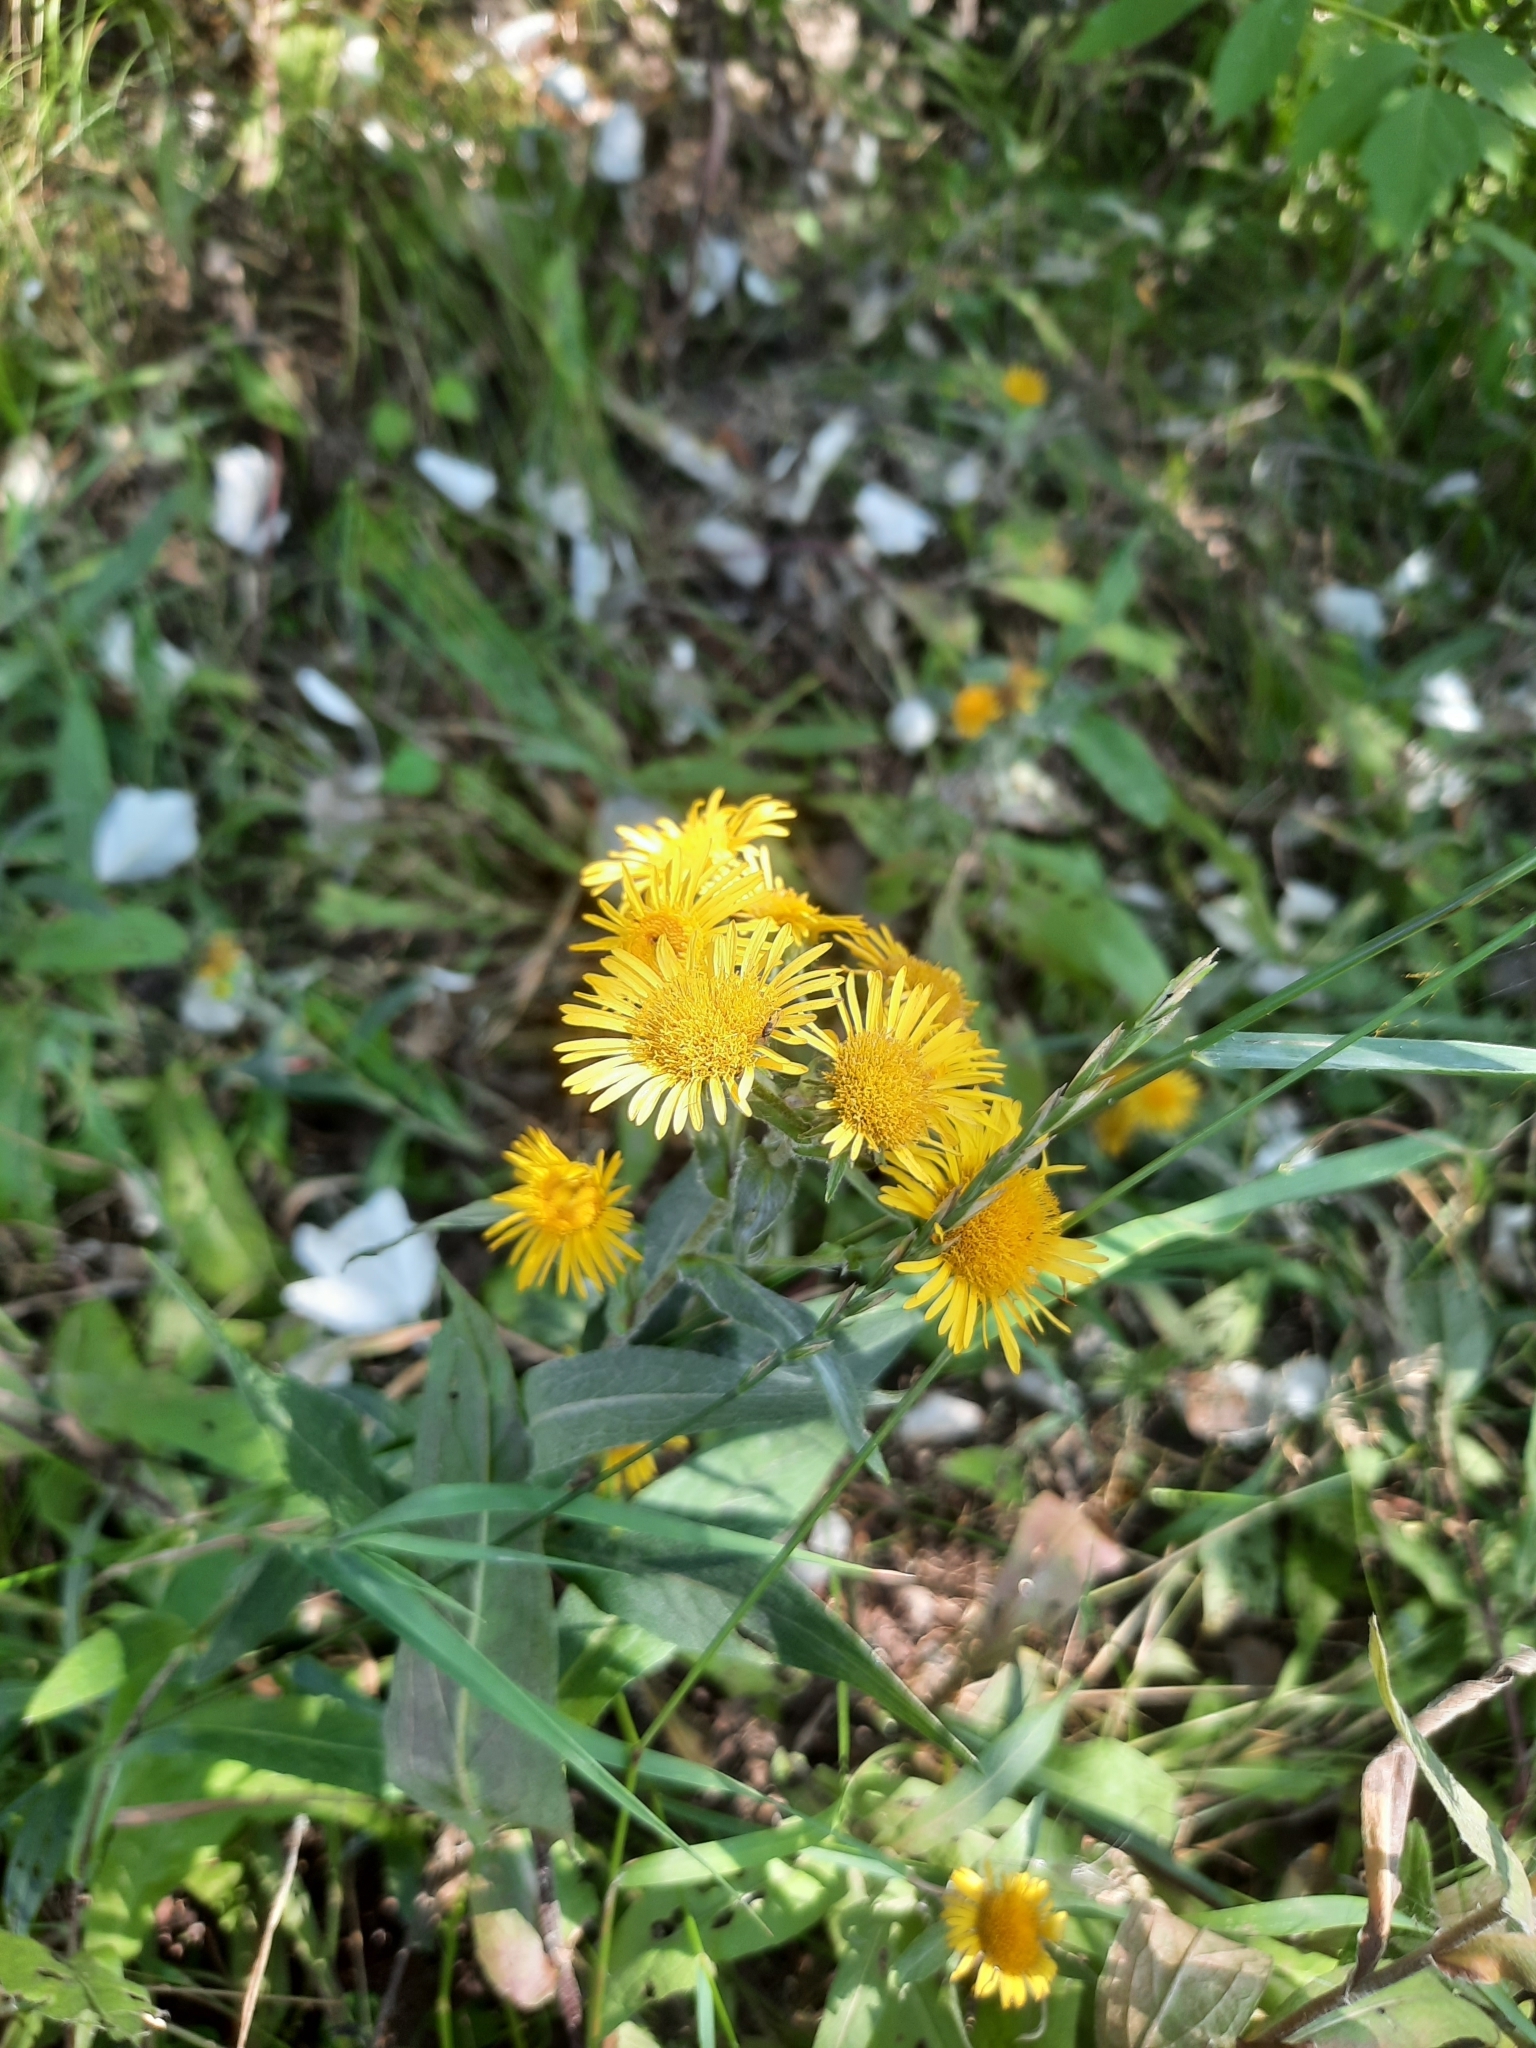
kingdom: Plantae
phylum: Tracheophyta
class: Magnoliopsida
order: Asterales
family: Asteraceae
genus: Pentanema
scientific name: Pentanema britannicum
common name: British elecampane
